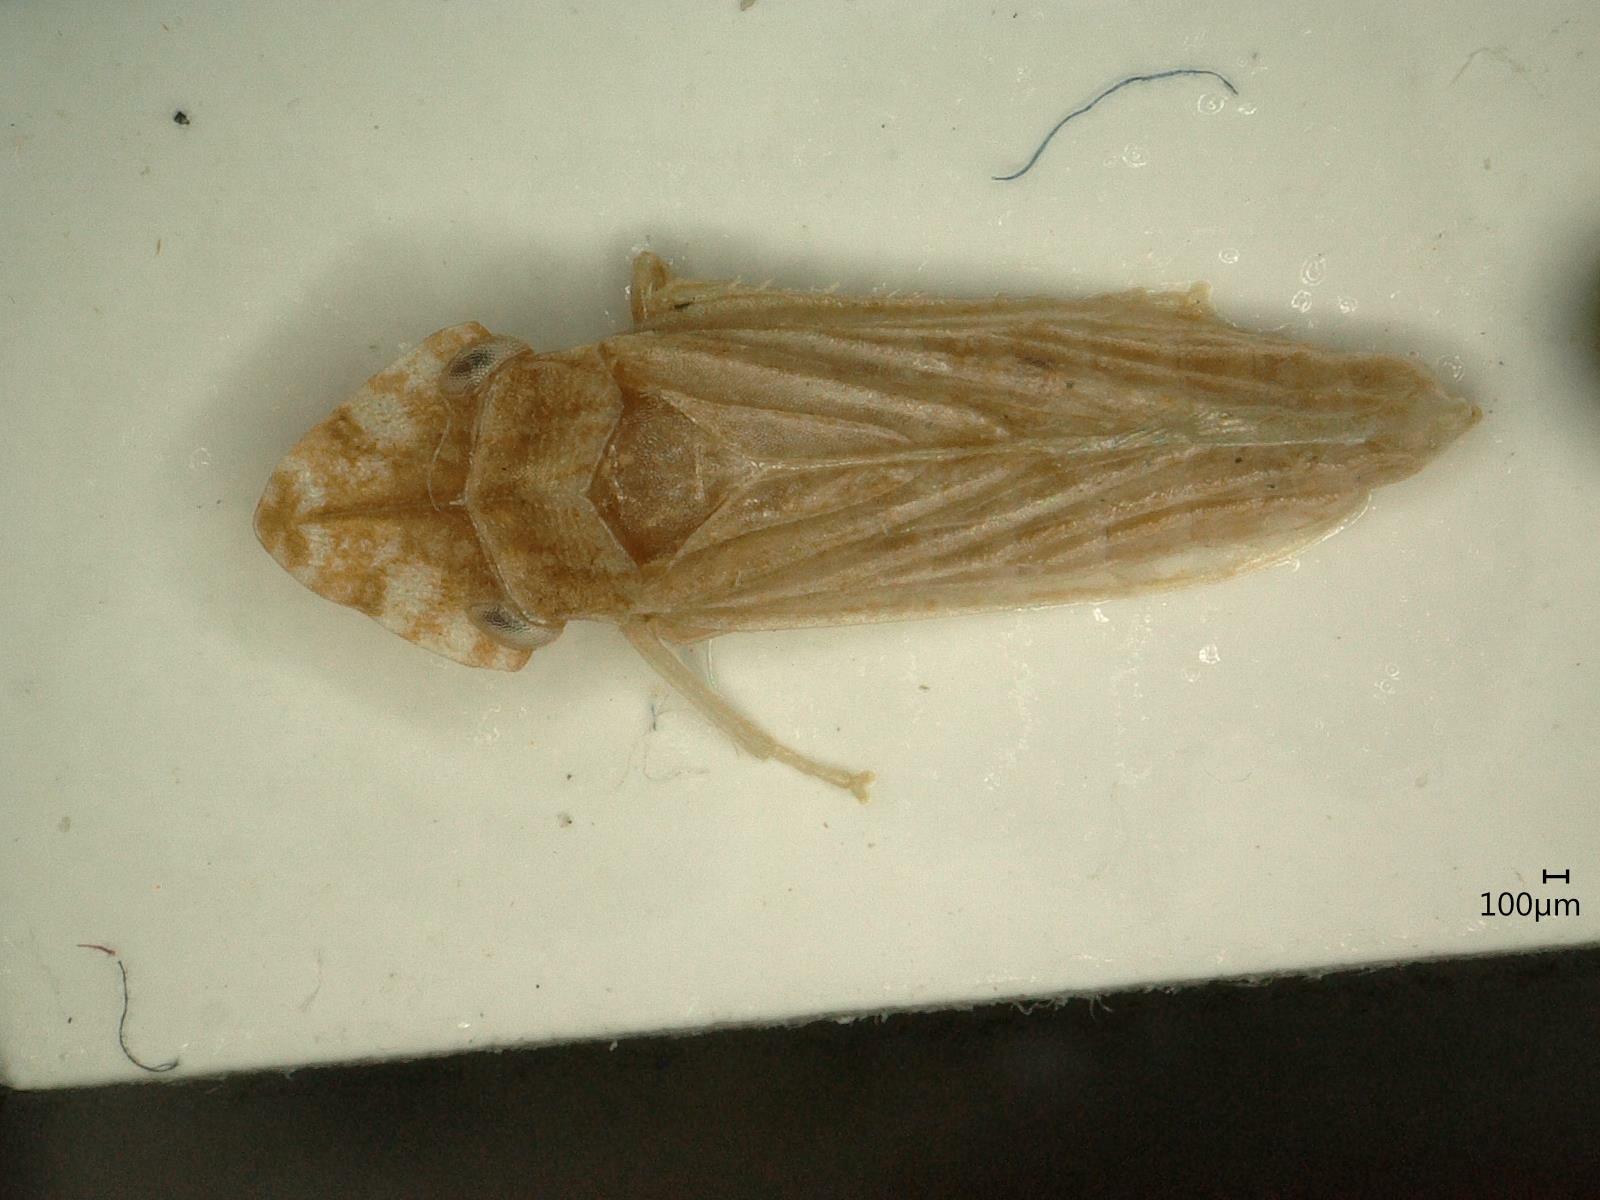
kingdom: Animalia
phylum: Arthropoda
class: Insecta
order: Hemiptera
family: Cicadellidae
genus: Eupelix
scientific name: Eupelix cuspidata
